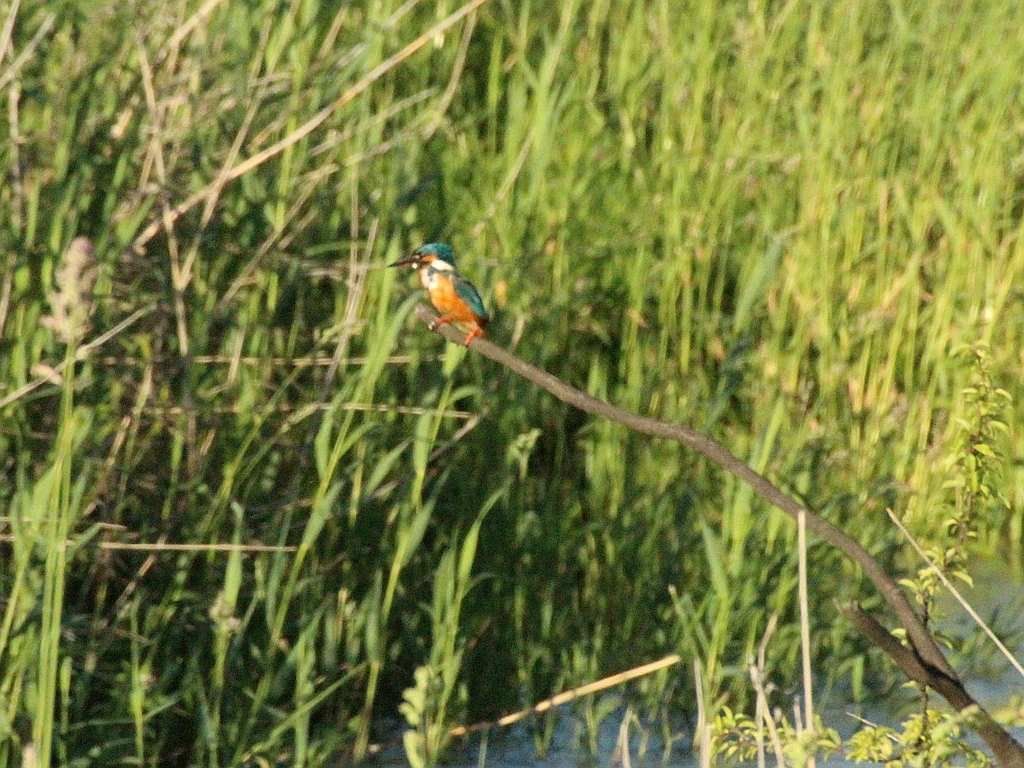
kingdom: Animalia
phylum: Chordata
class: Aves
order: Coraciiformes
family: Alcedinidae
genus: Alcedo
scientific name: Alcedo atthis
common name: Common kingfisher
